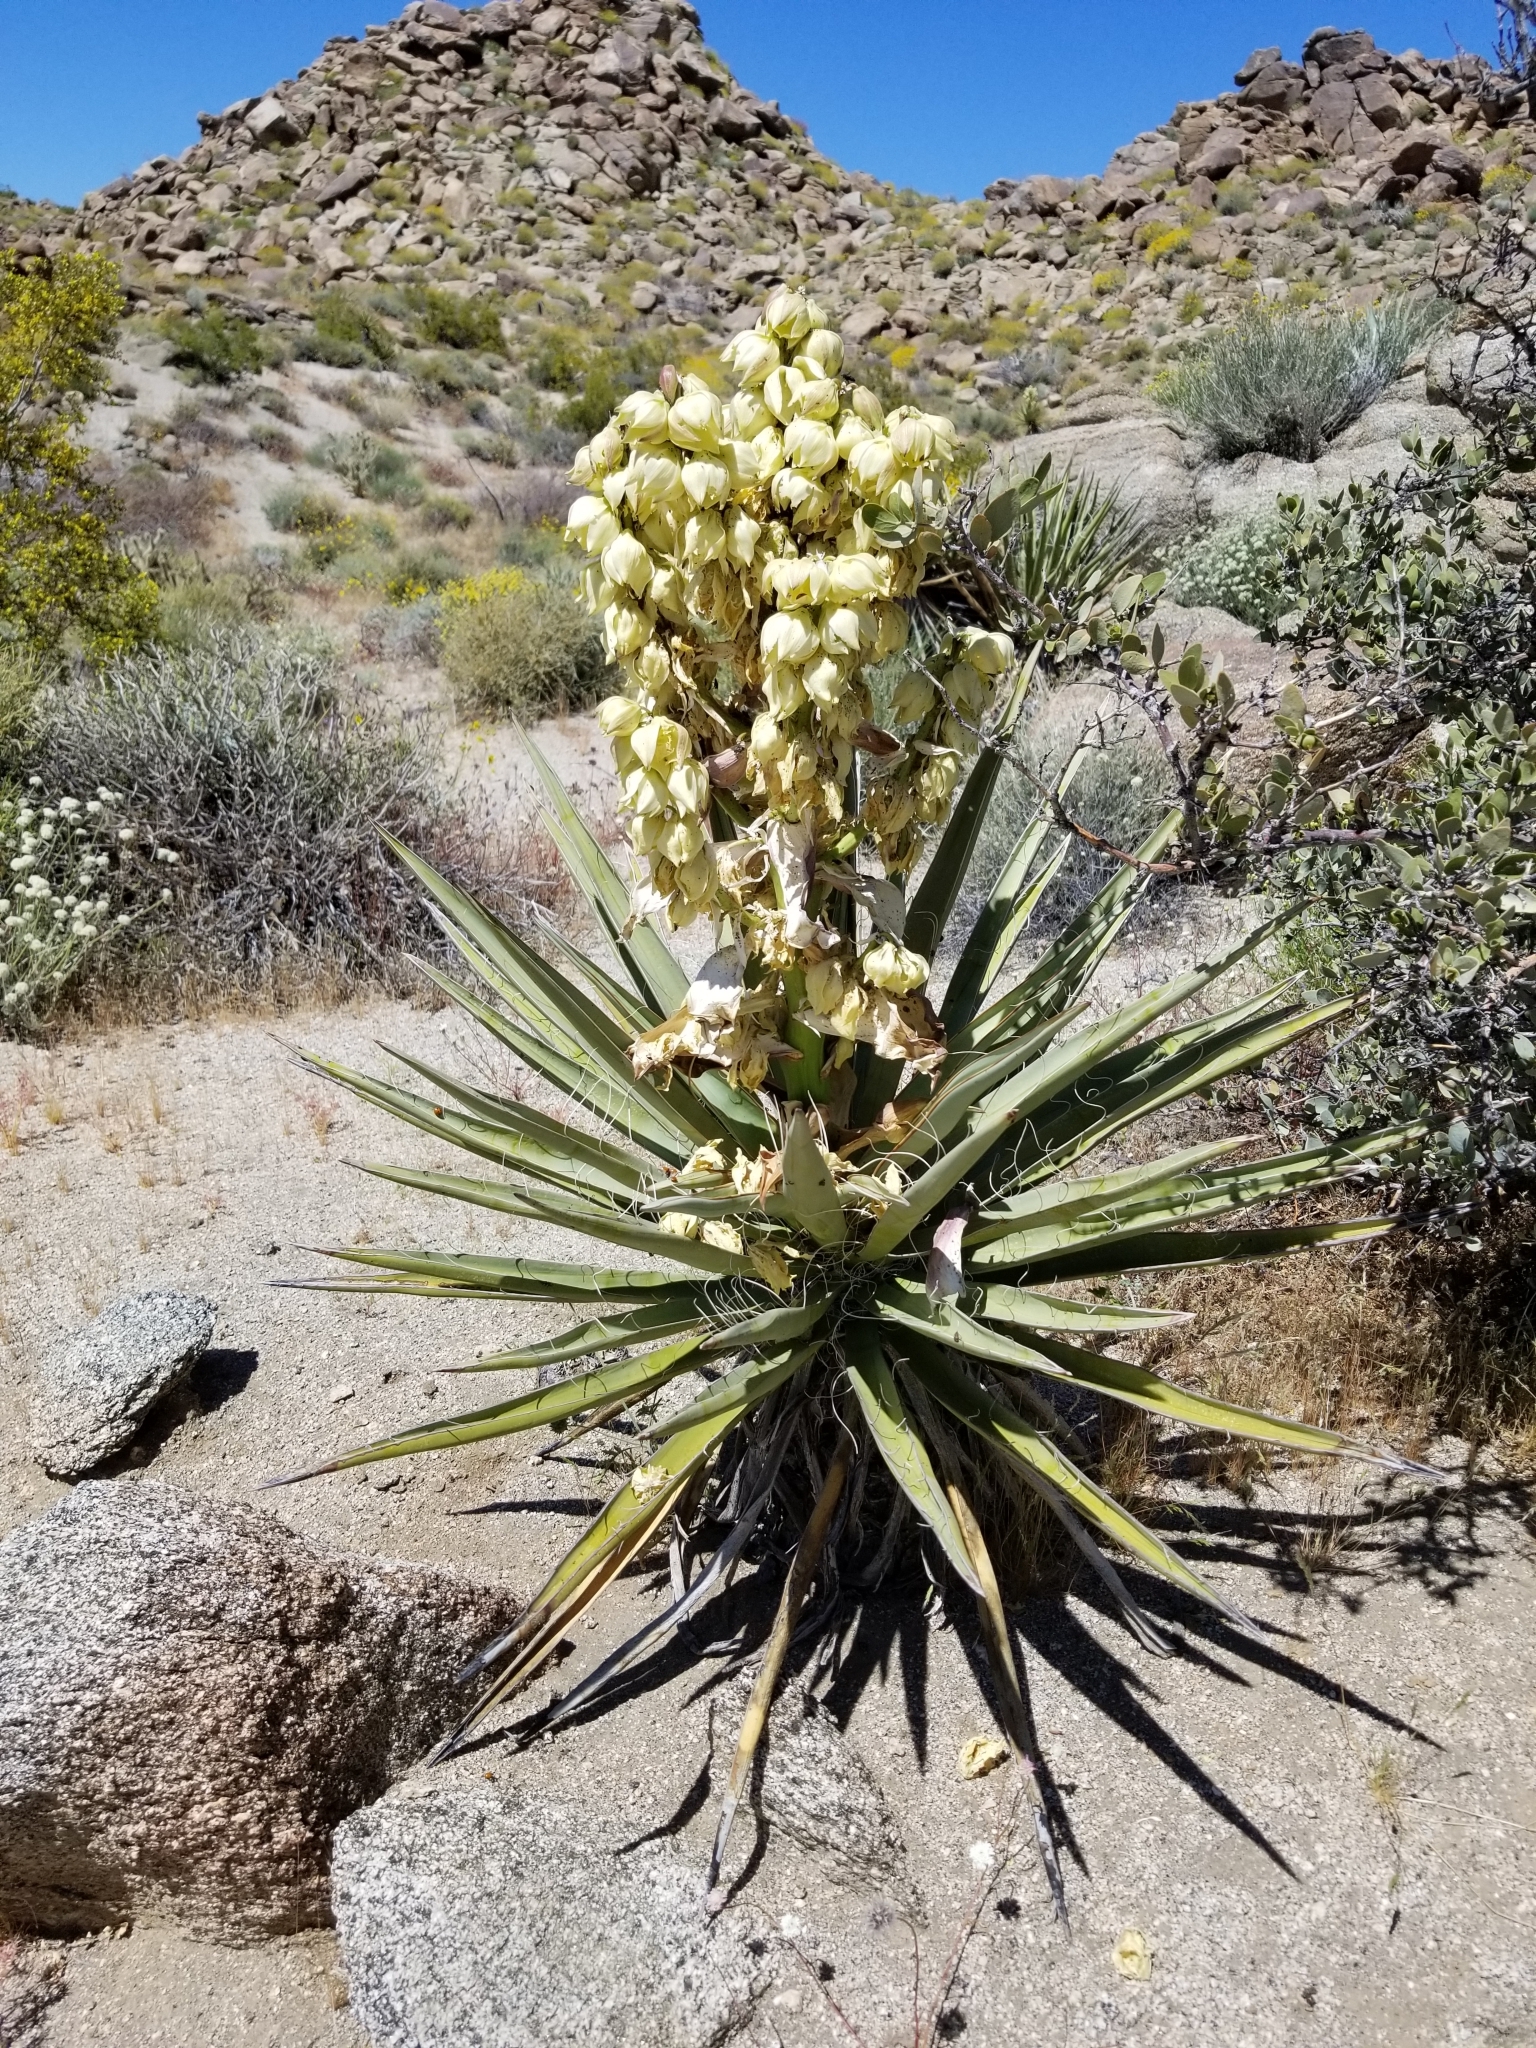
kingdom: Plantae
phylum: Tracheophyta
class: Liliopsida
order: Asparagales
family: Asparagaceae
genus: Yucca
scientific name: Yucca schidigera
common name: Mojave yucca
